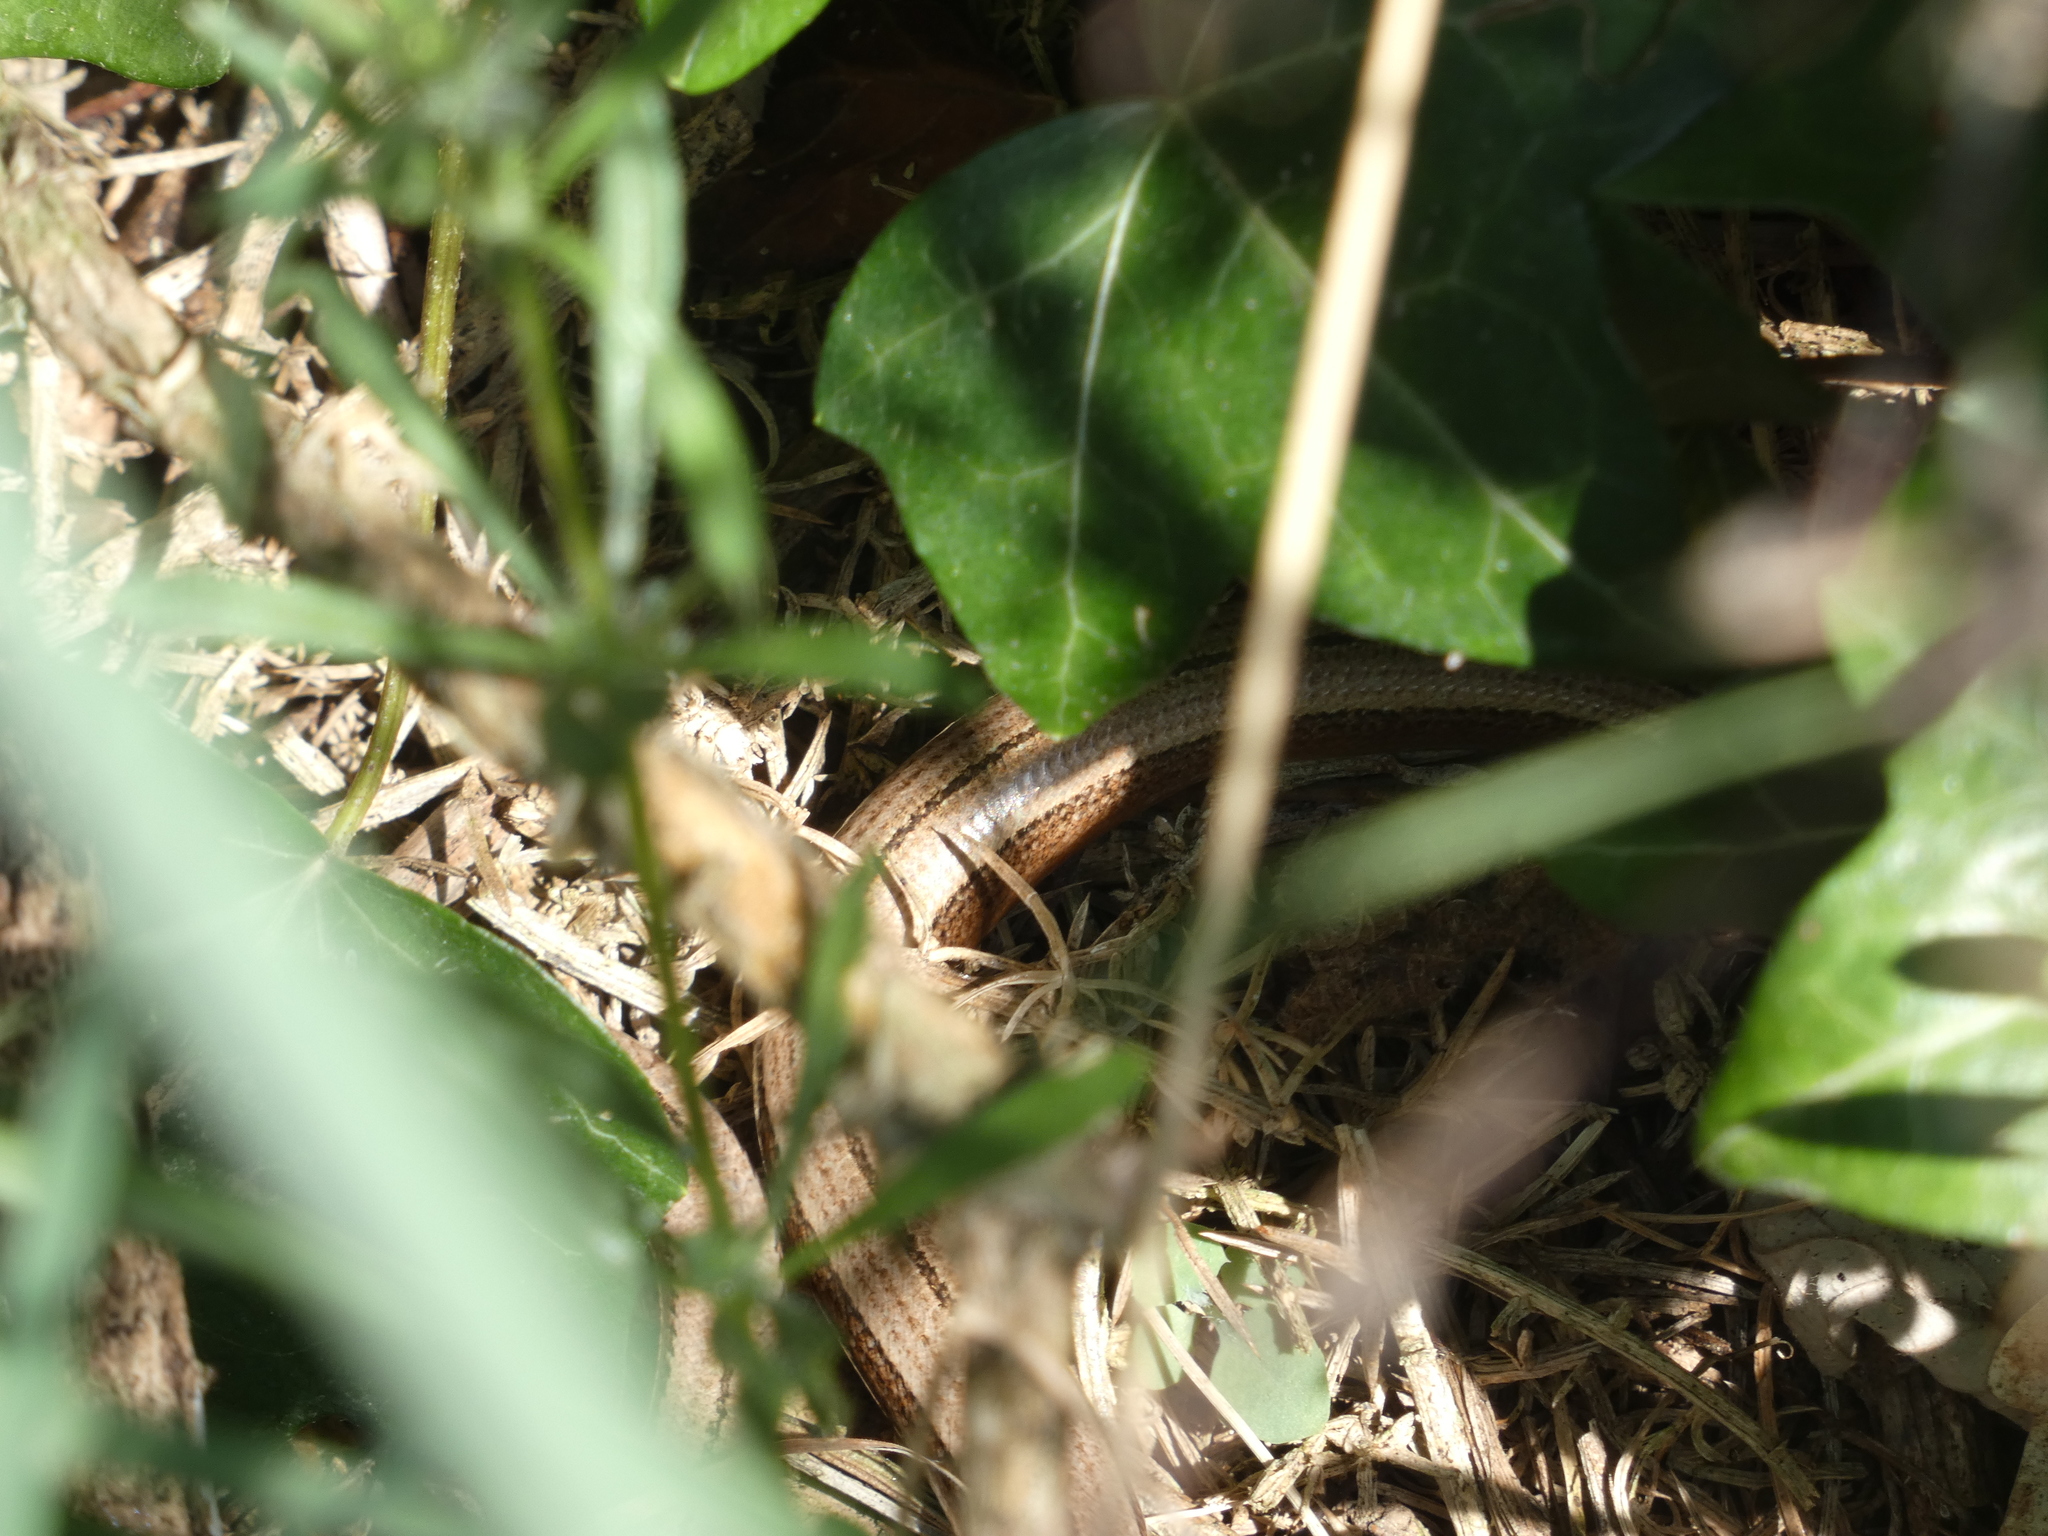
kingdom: Animalia
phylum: Chordata
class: Squamata
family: Anguidae
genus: Anguis
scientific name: Anguis fragilis
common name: Slow worm
